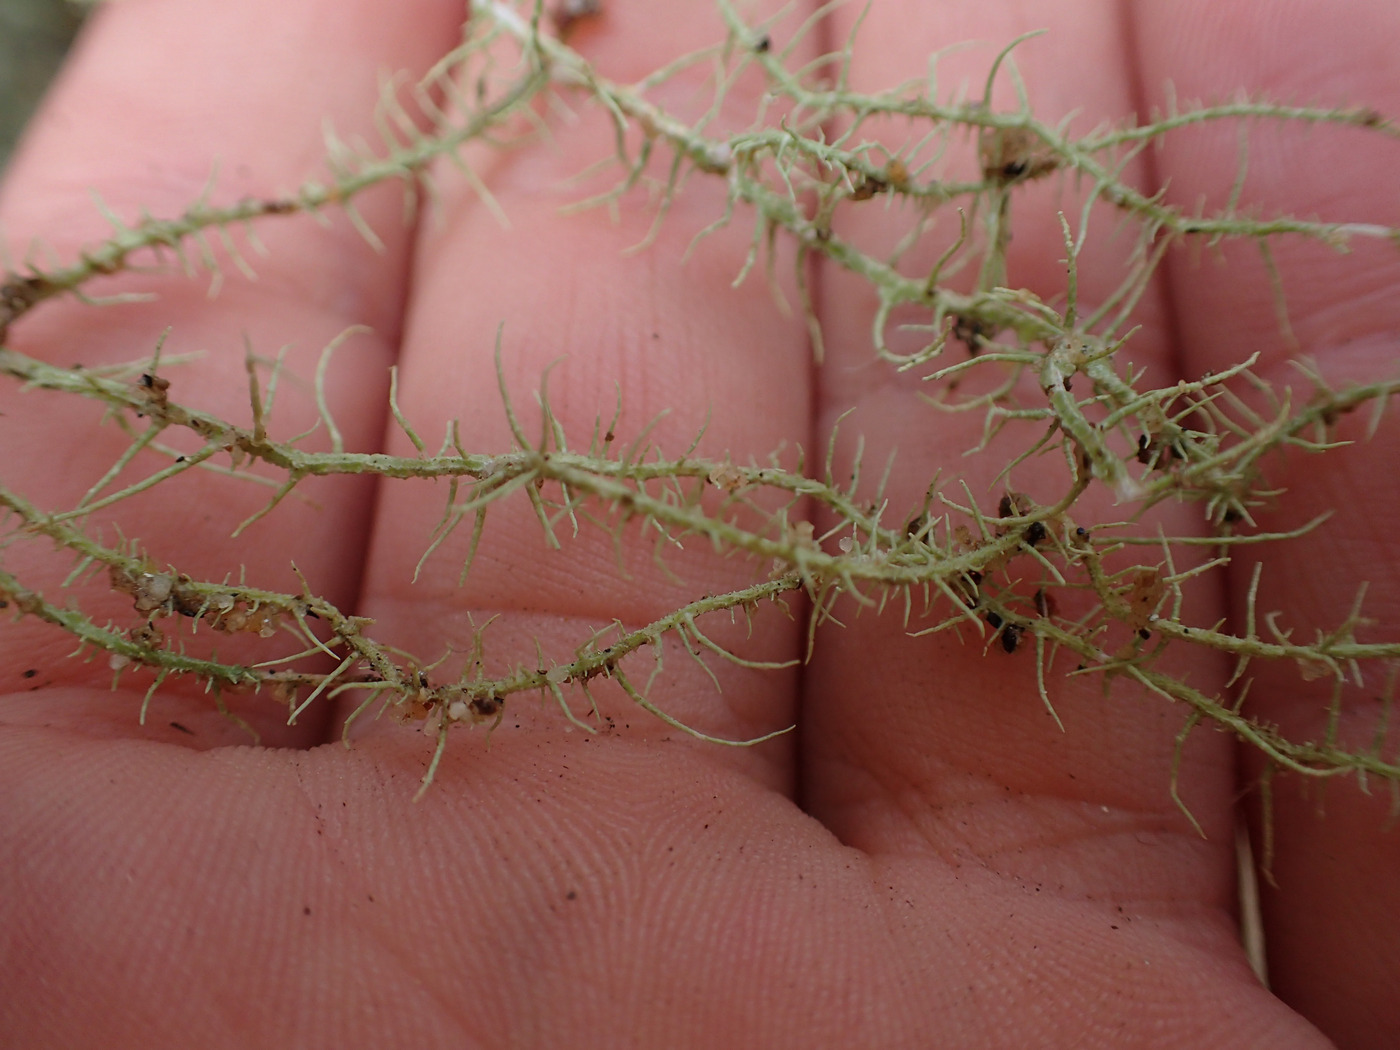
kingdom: Fungi
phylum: Ascomycota
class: Lecanoromycetes
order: Lecanorales
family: Parmeliaceae
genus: Usnea
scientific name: Usnea angulata
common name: Old-man’s beard lichen
